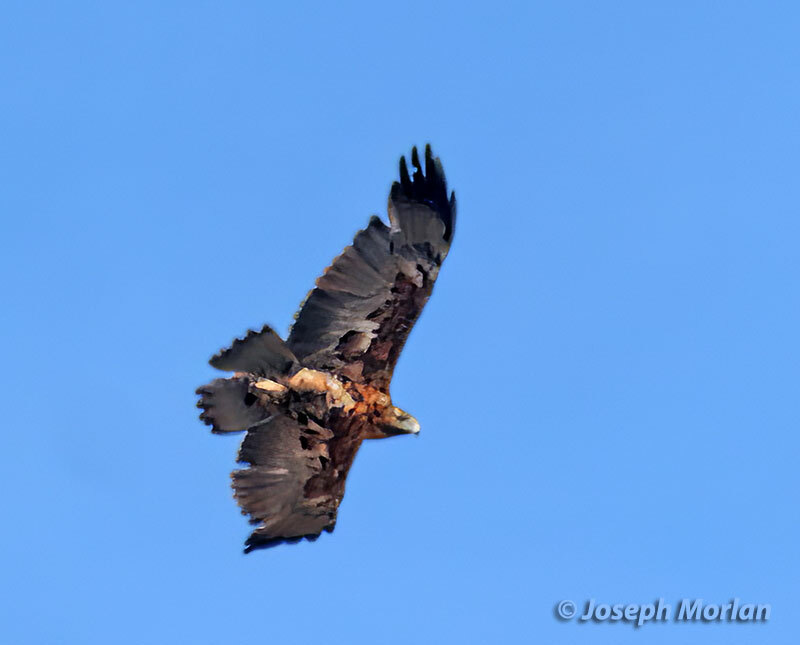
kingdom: Animalia
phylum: Chordata
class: Aves
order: Accipitriformes
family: Accipitridae
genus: Geranoaetus
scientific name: Geranoaetus melanoleucus
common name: Black-chested buzzard-eagle
